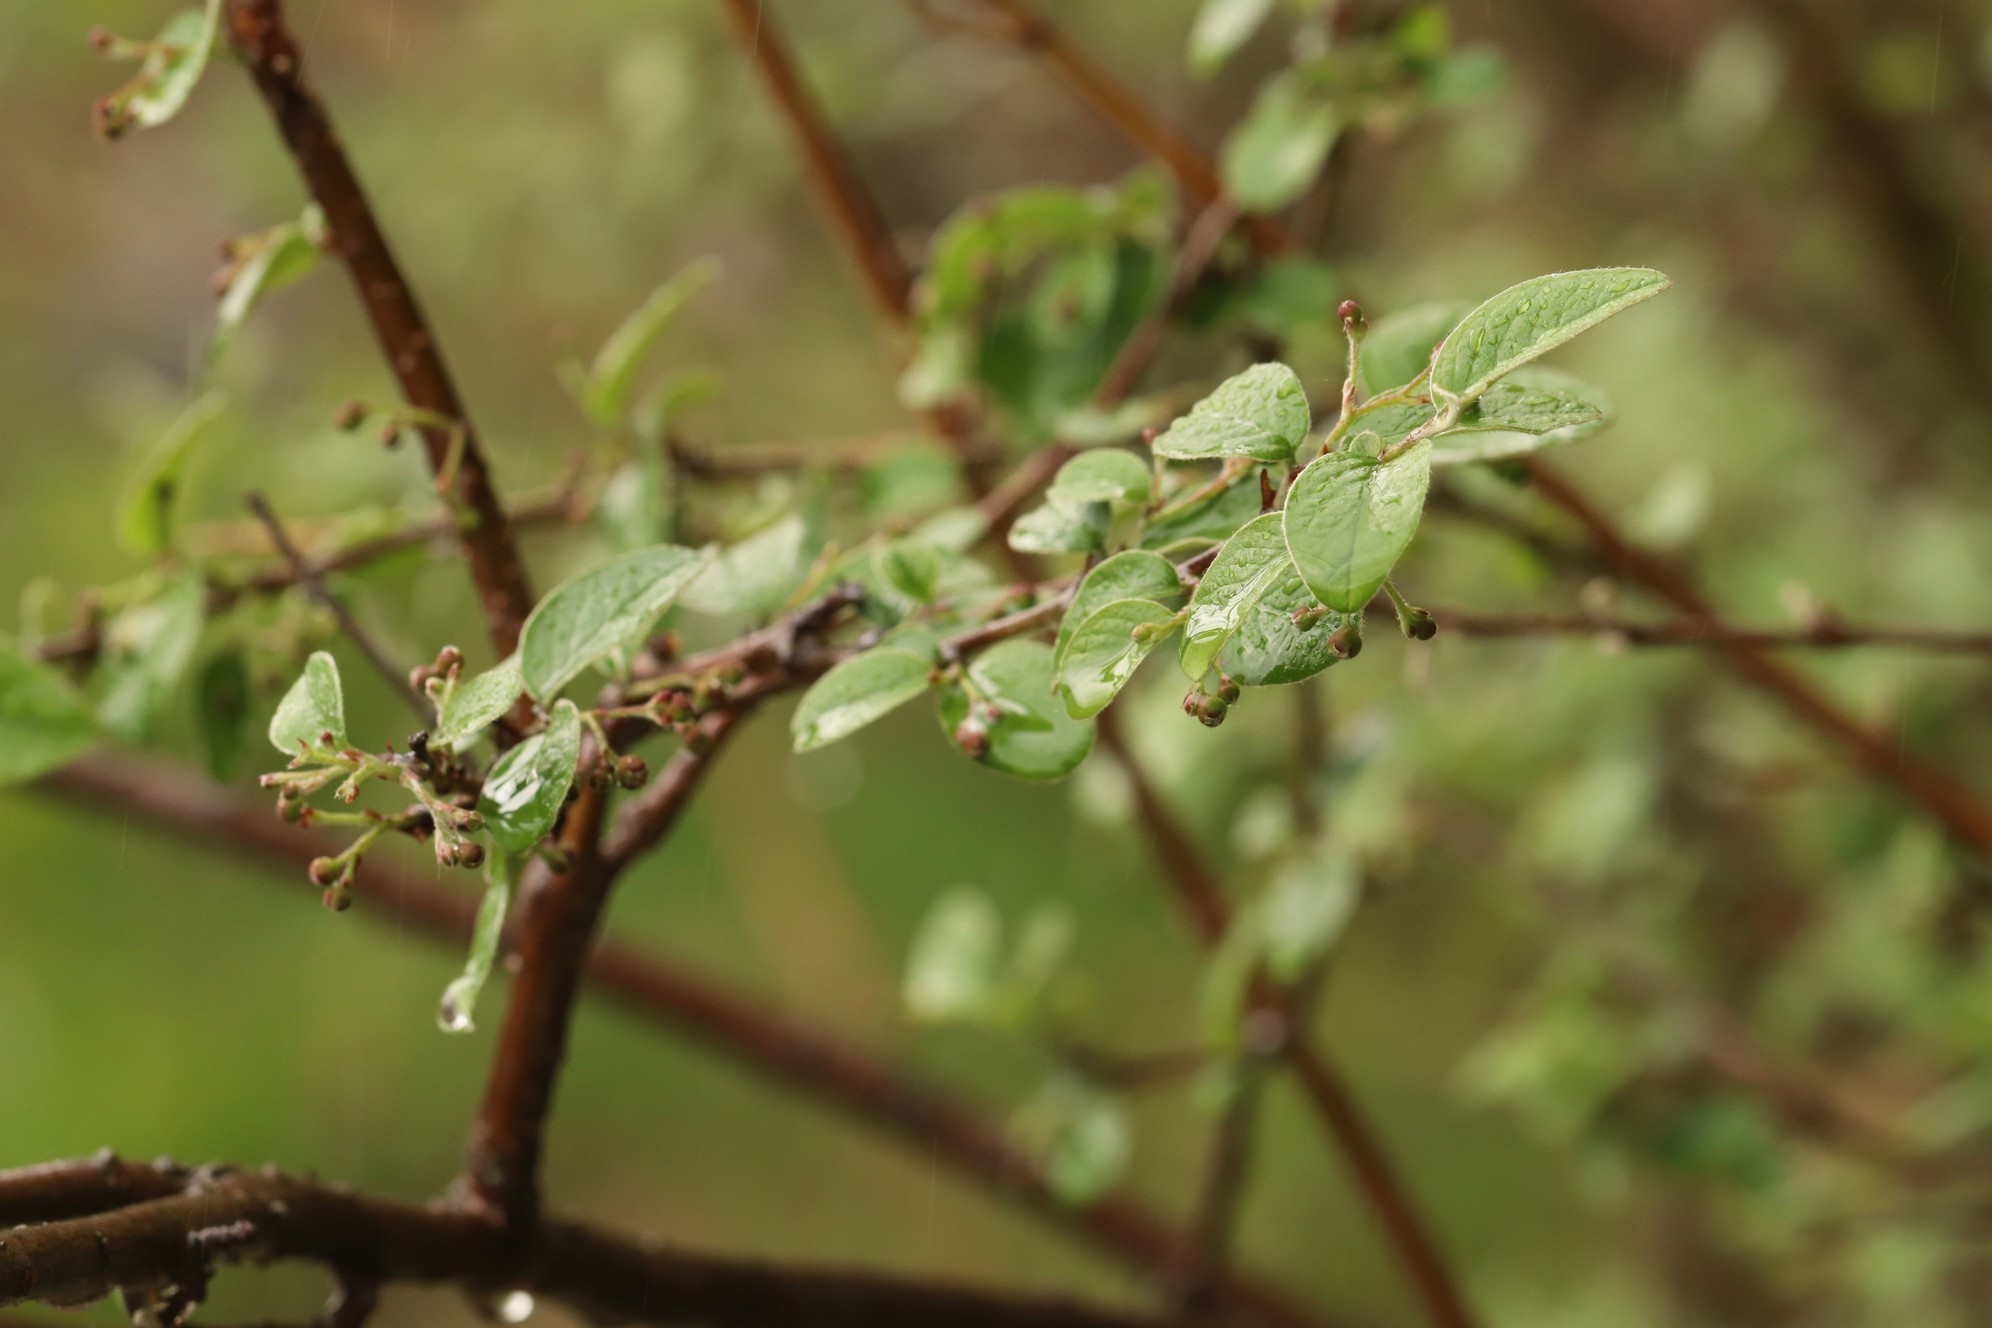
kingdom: Plantae
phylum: Tracheophyta
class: Magnoliopsida
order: Rosales
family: Rosaceae
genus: Cotoneaster
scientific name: Cotoneaster melanocarpus
